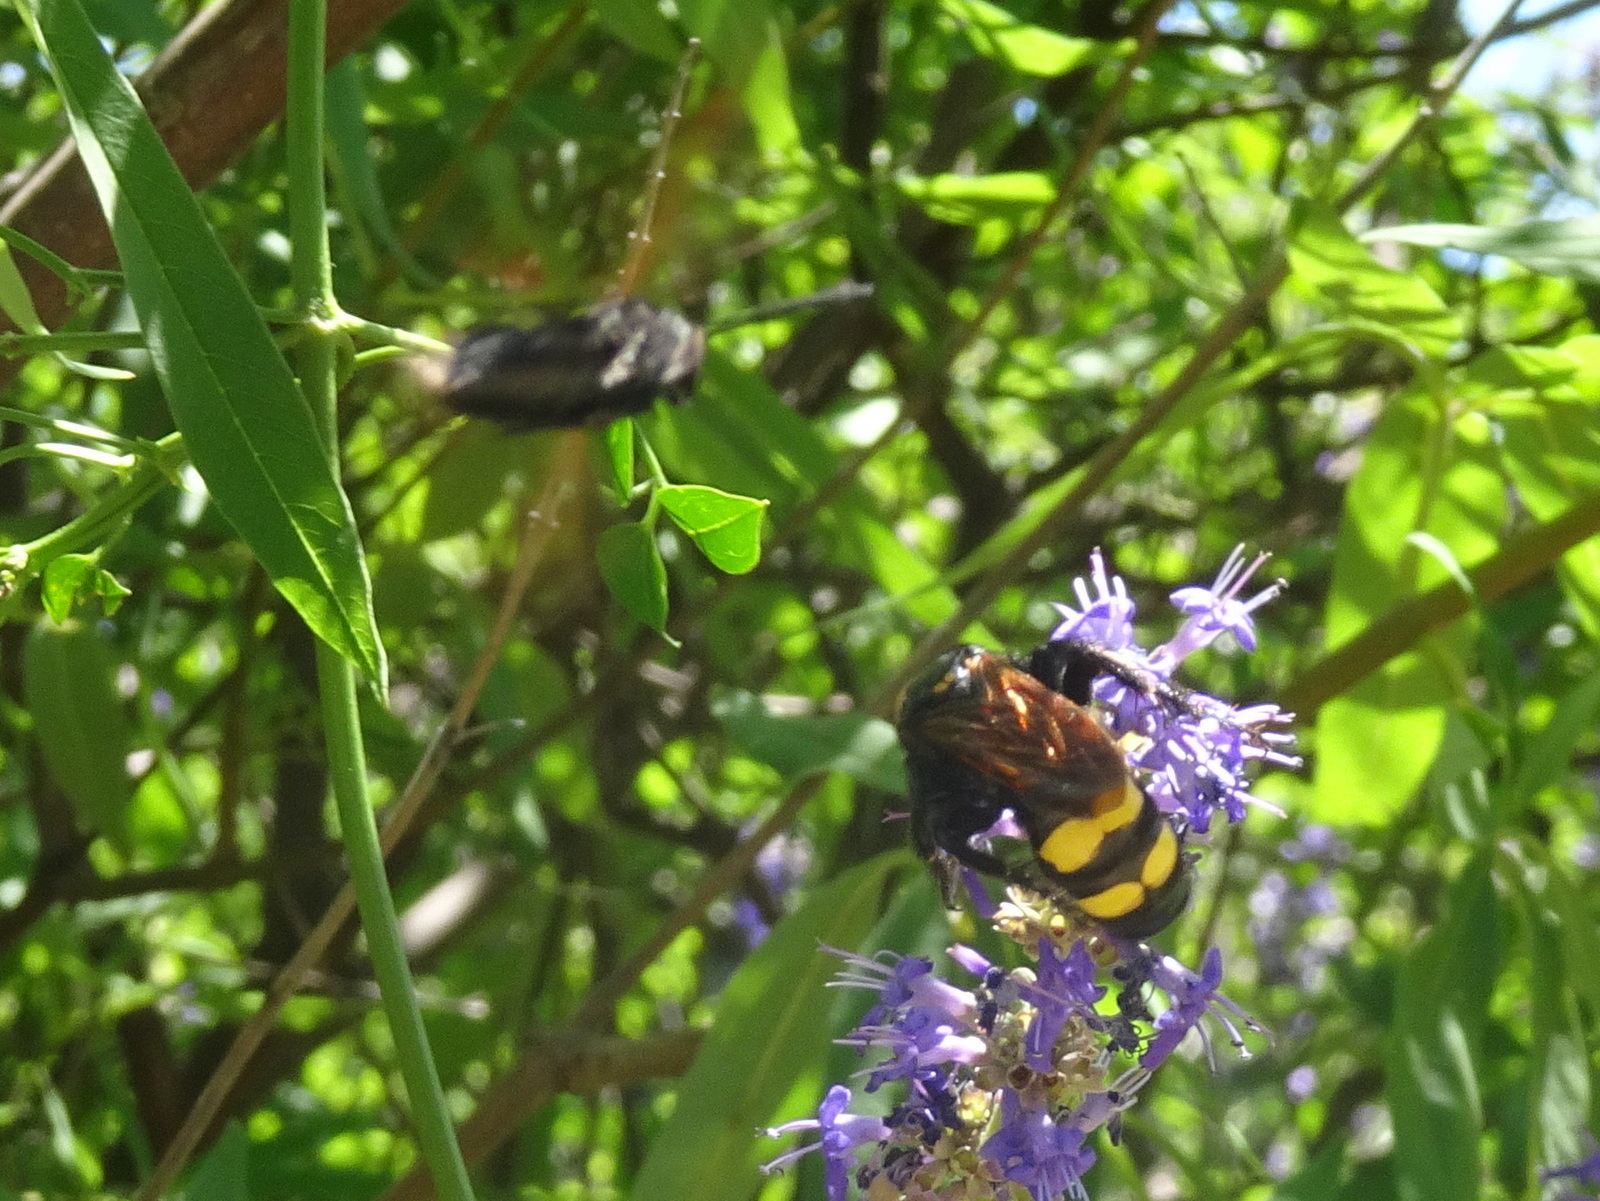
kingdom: Animalia
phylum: Arthropoda
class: Insecta
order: Hymenoptera
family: Scoliidae
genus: Megascolia
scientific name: Megascolia maculata
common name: Mammoth wasp
